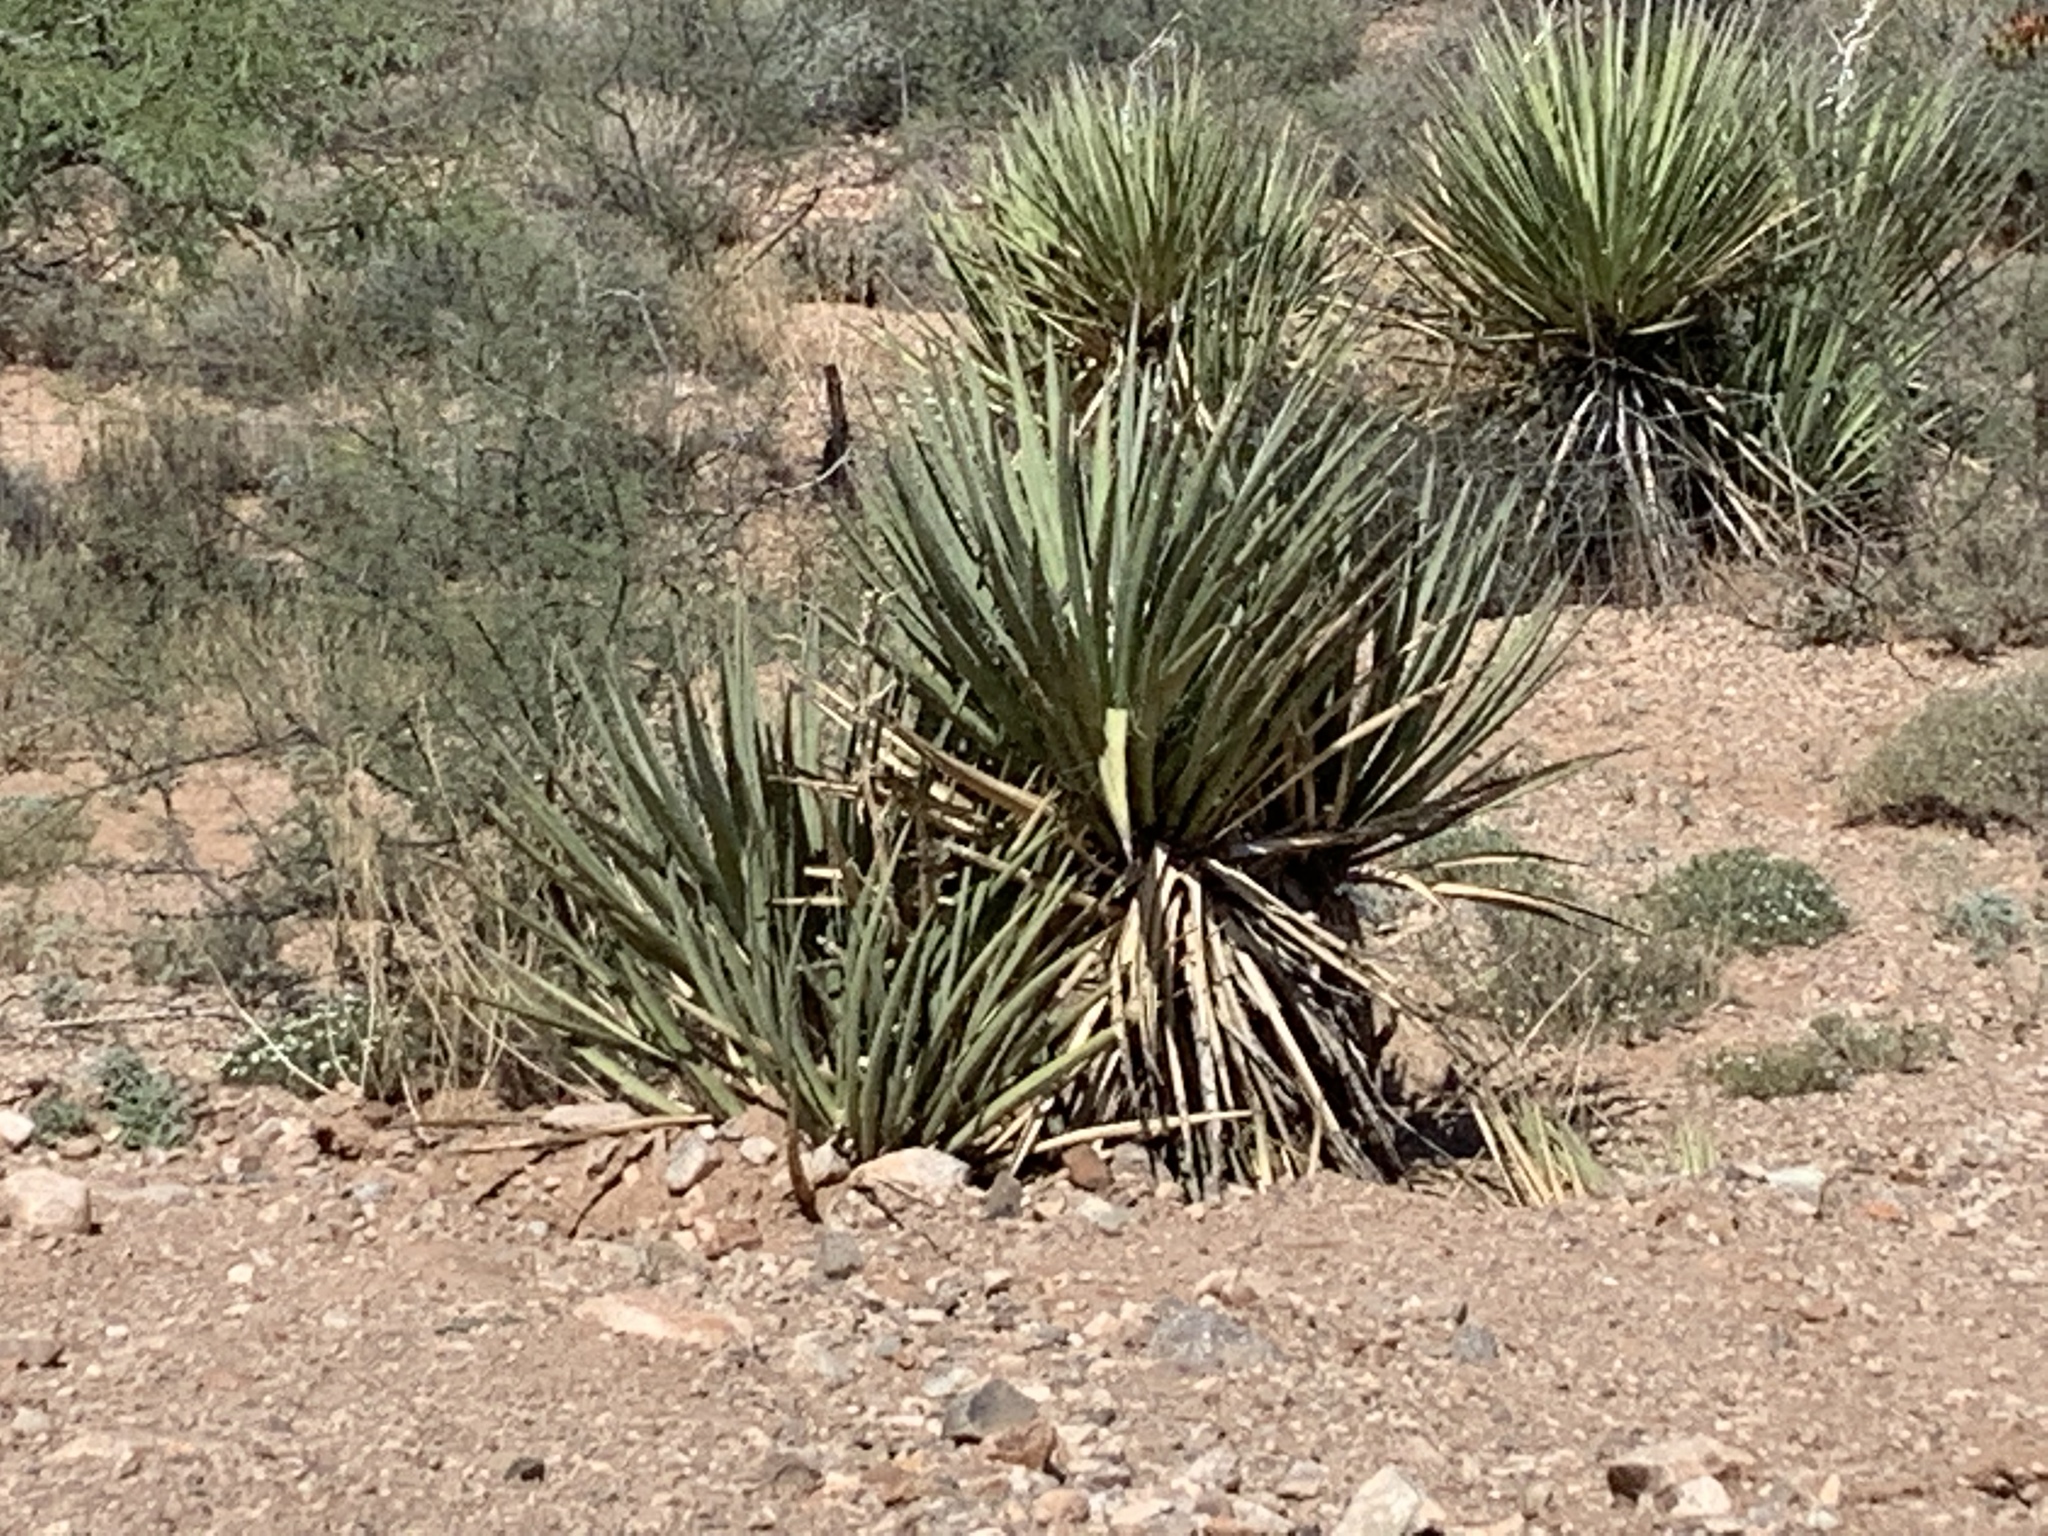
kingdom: Plantae
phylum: Tracheophyta
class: Liliopsida
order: Asparagales
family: Asparagaceae
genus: Yucca
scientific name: Yucca baccata
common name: Banana yucca
